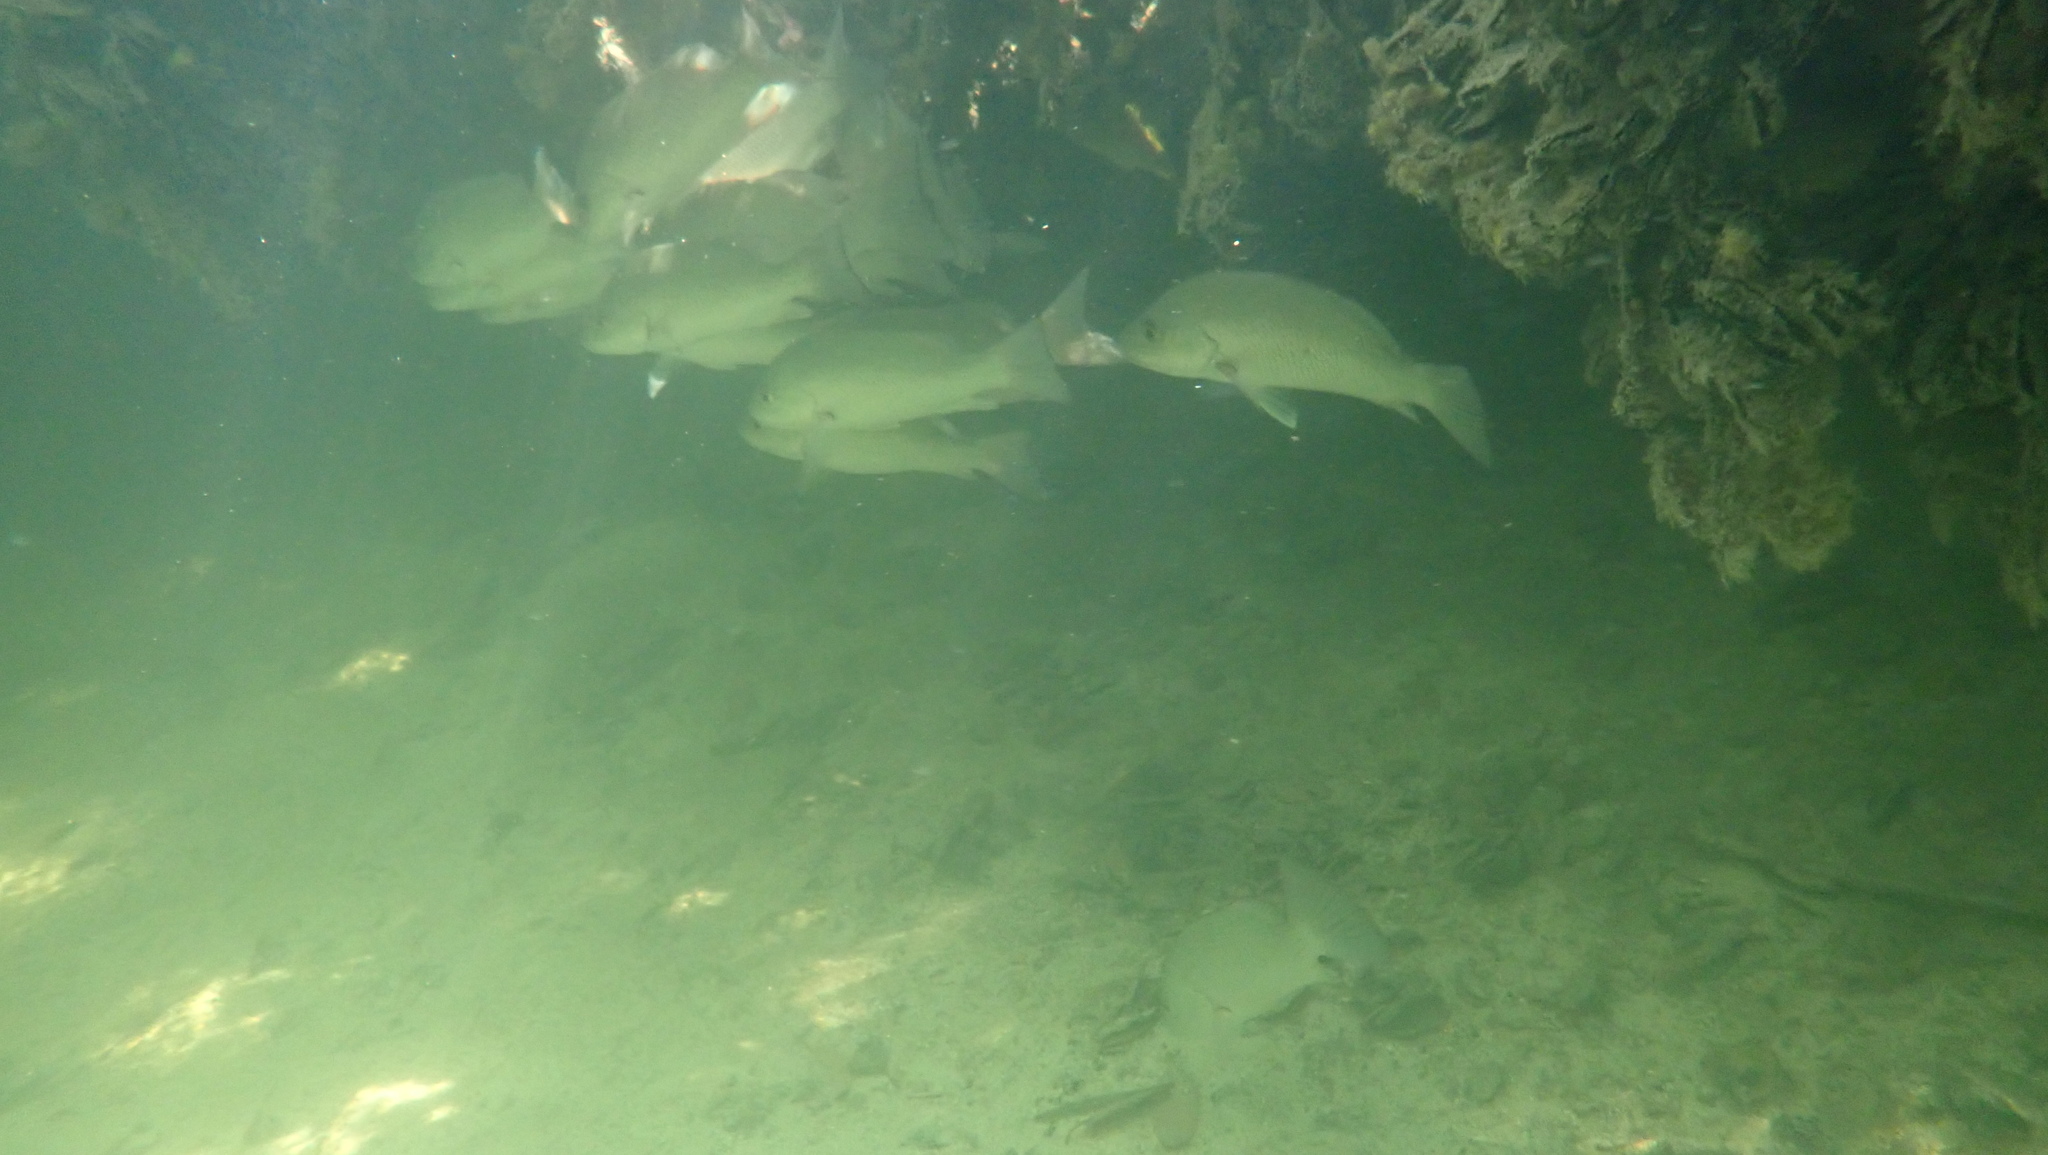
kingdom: Animalia
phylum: Chordata
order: Perciformes
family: Lutjanidae
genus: Lutjanus
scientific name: Lutjanus griseus
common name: Gray snapper
